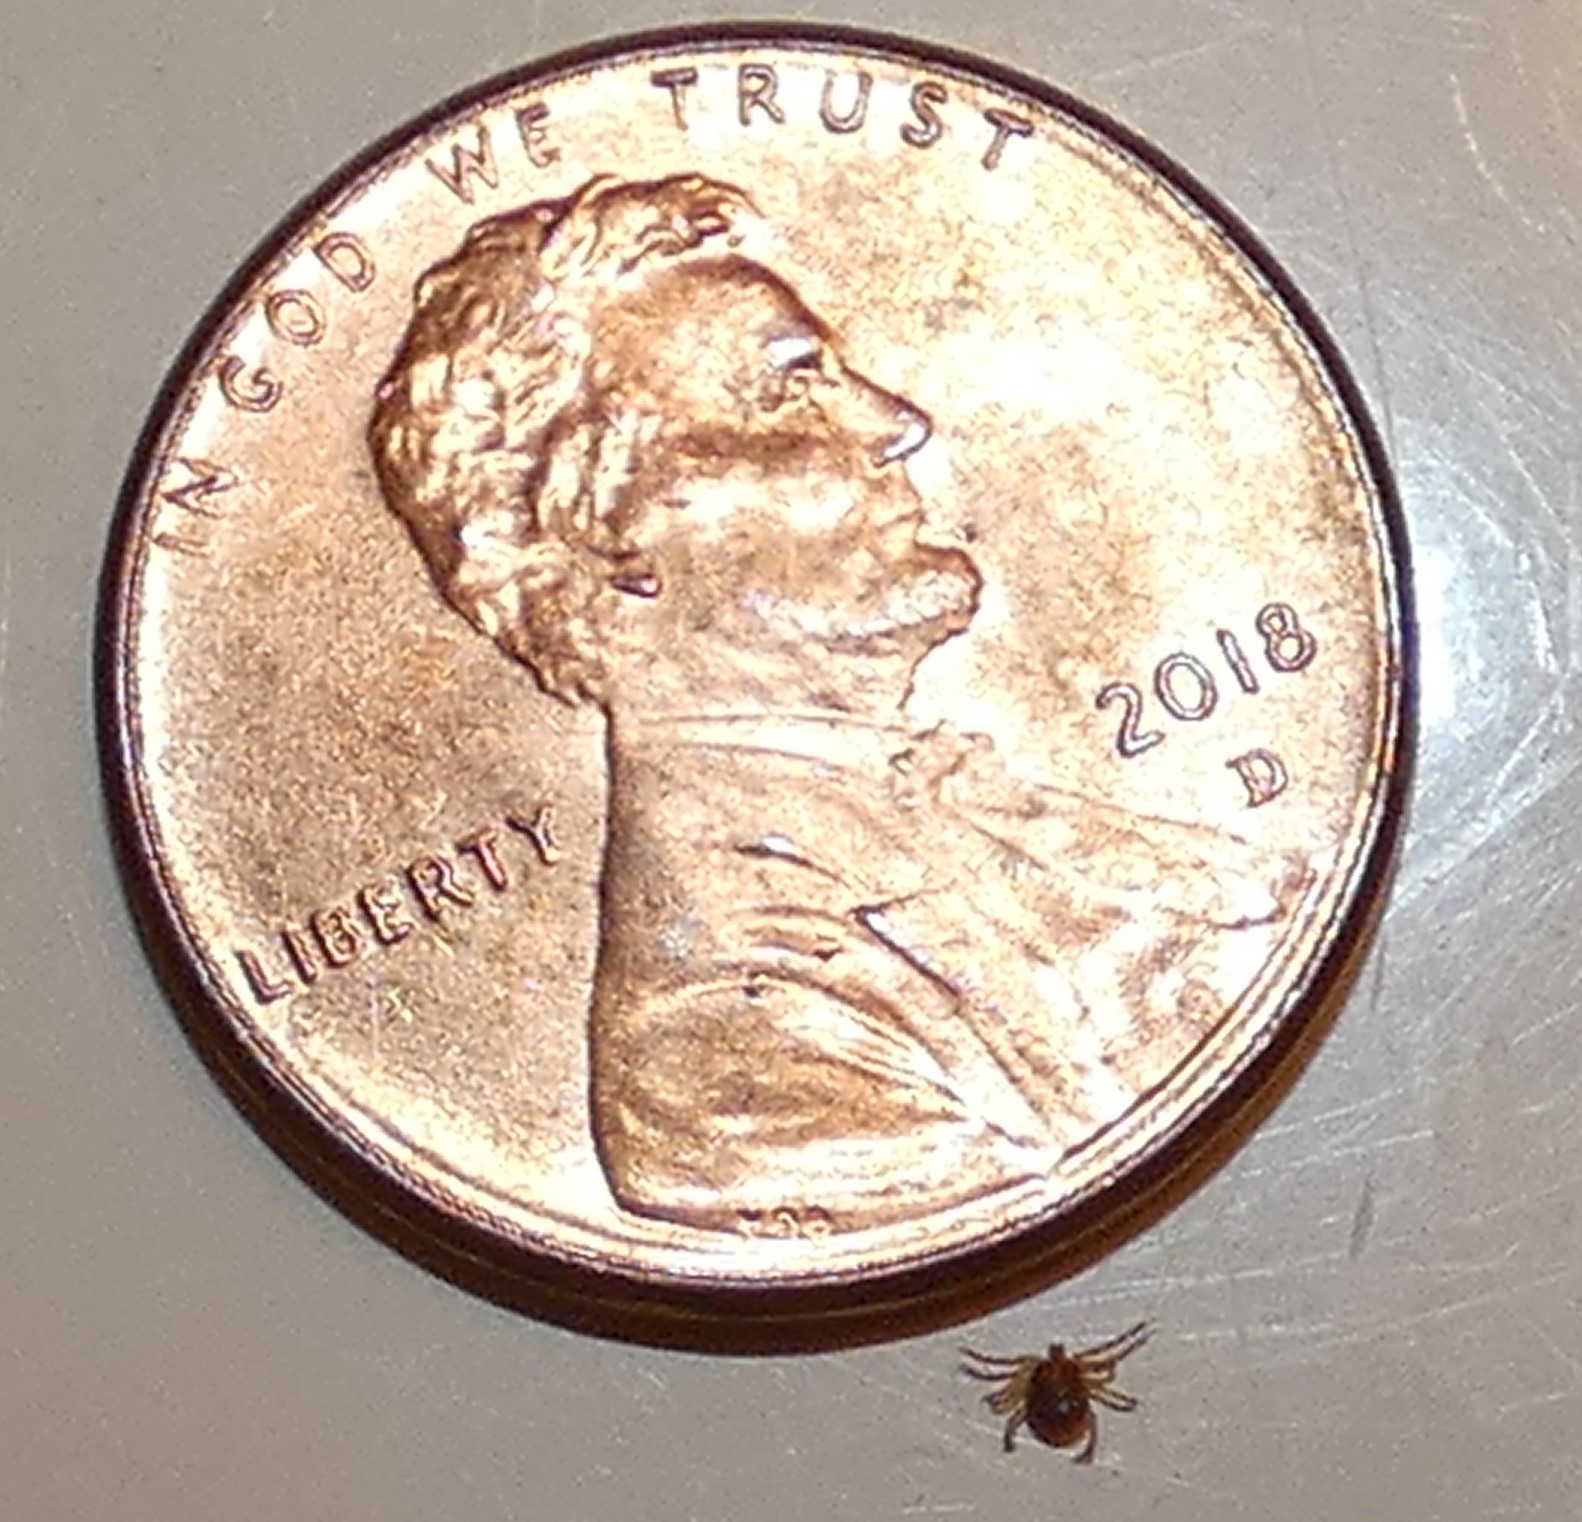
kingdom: Animalia
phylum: Arthropoda
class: Arachnida
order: Ixodida
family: Ixodidae
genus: Amblyomma
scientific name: Amblyomma americanum
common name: Lone star tick
